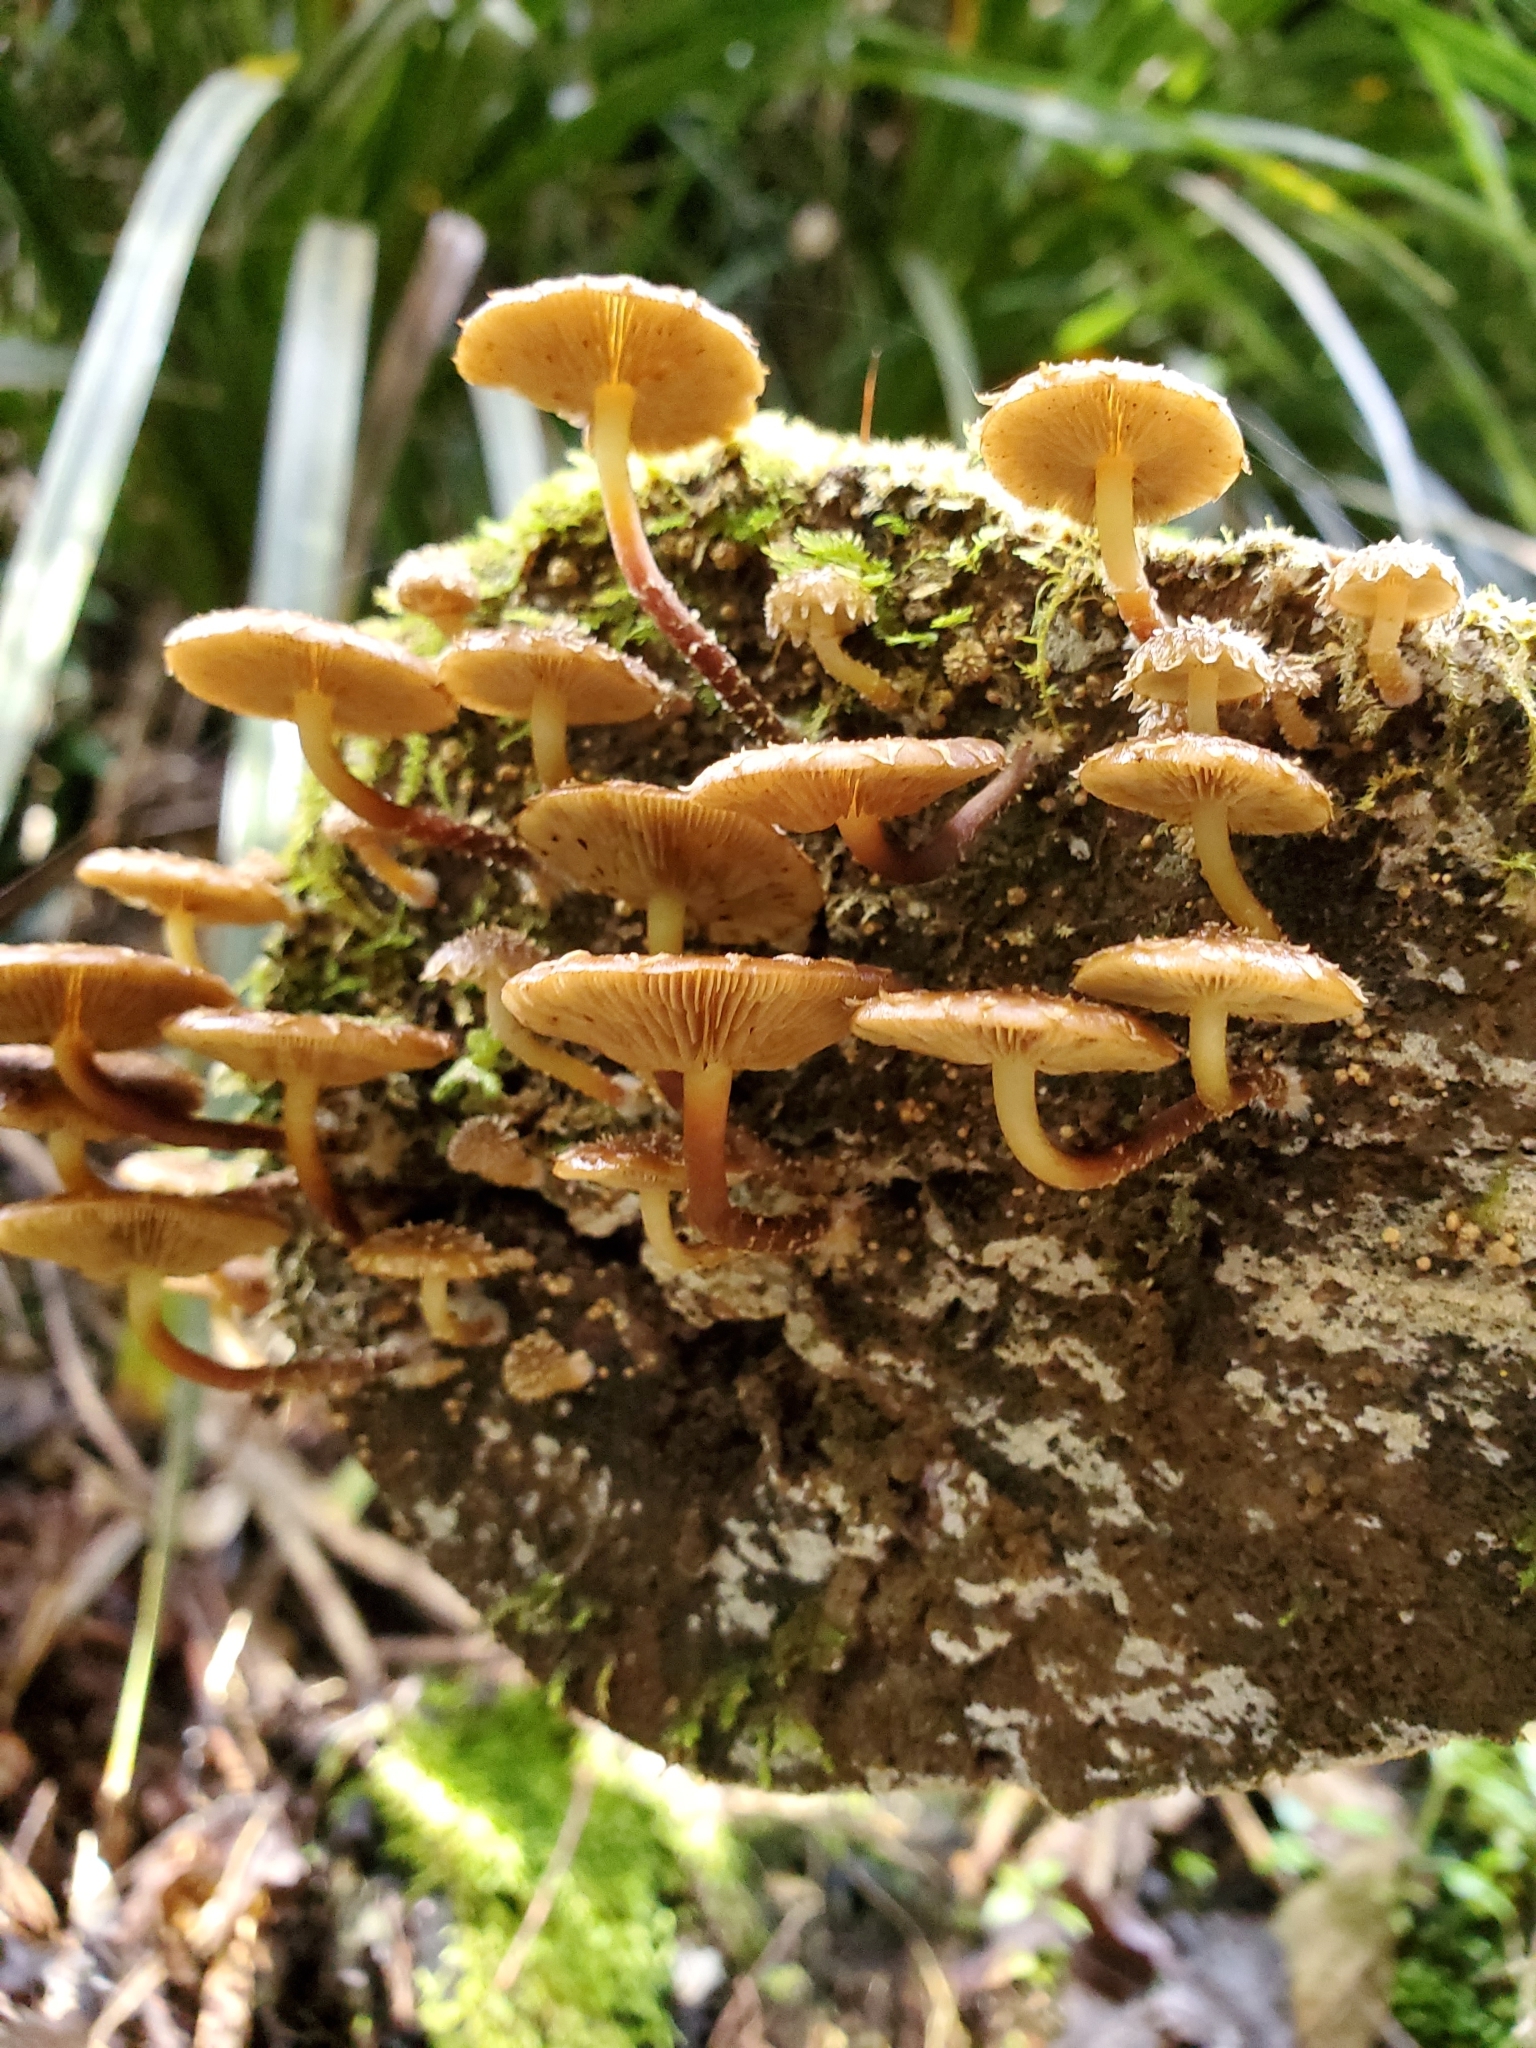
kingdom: Fungi
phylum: Basidiomycota
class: Agaricomycetes
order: Agaricales
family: Strophariaceae
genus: Pholiota
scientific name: Pholiota subflammans
